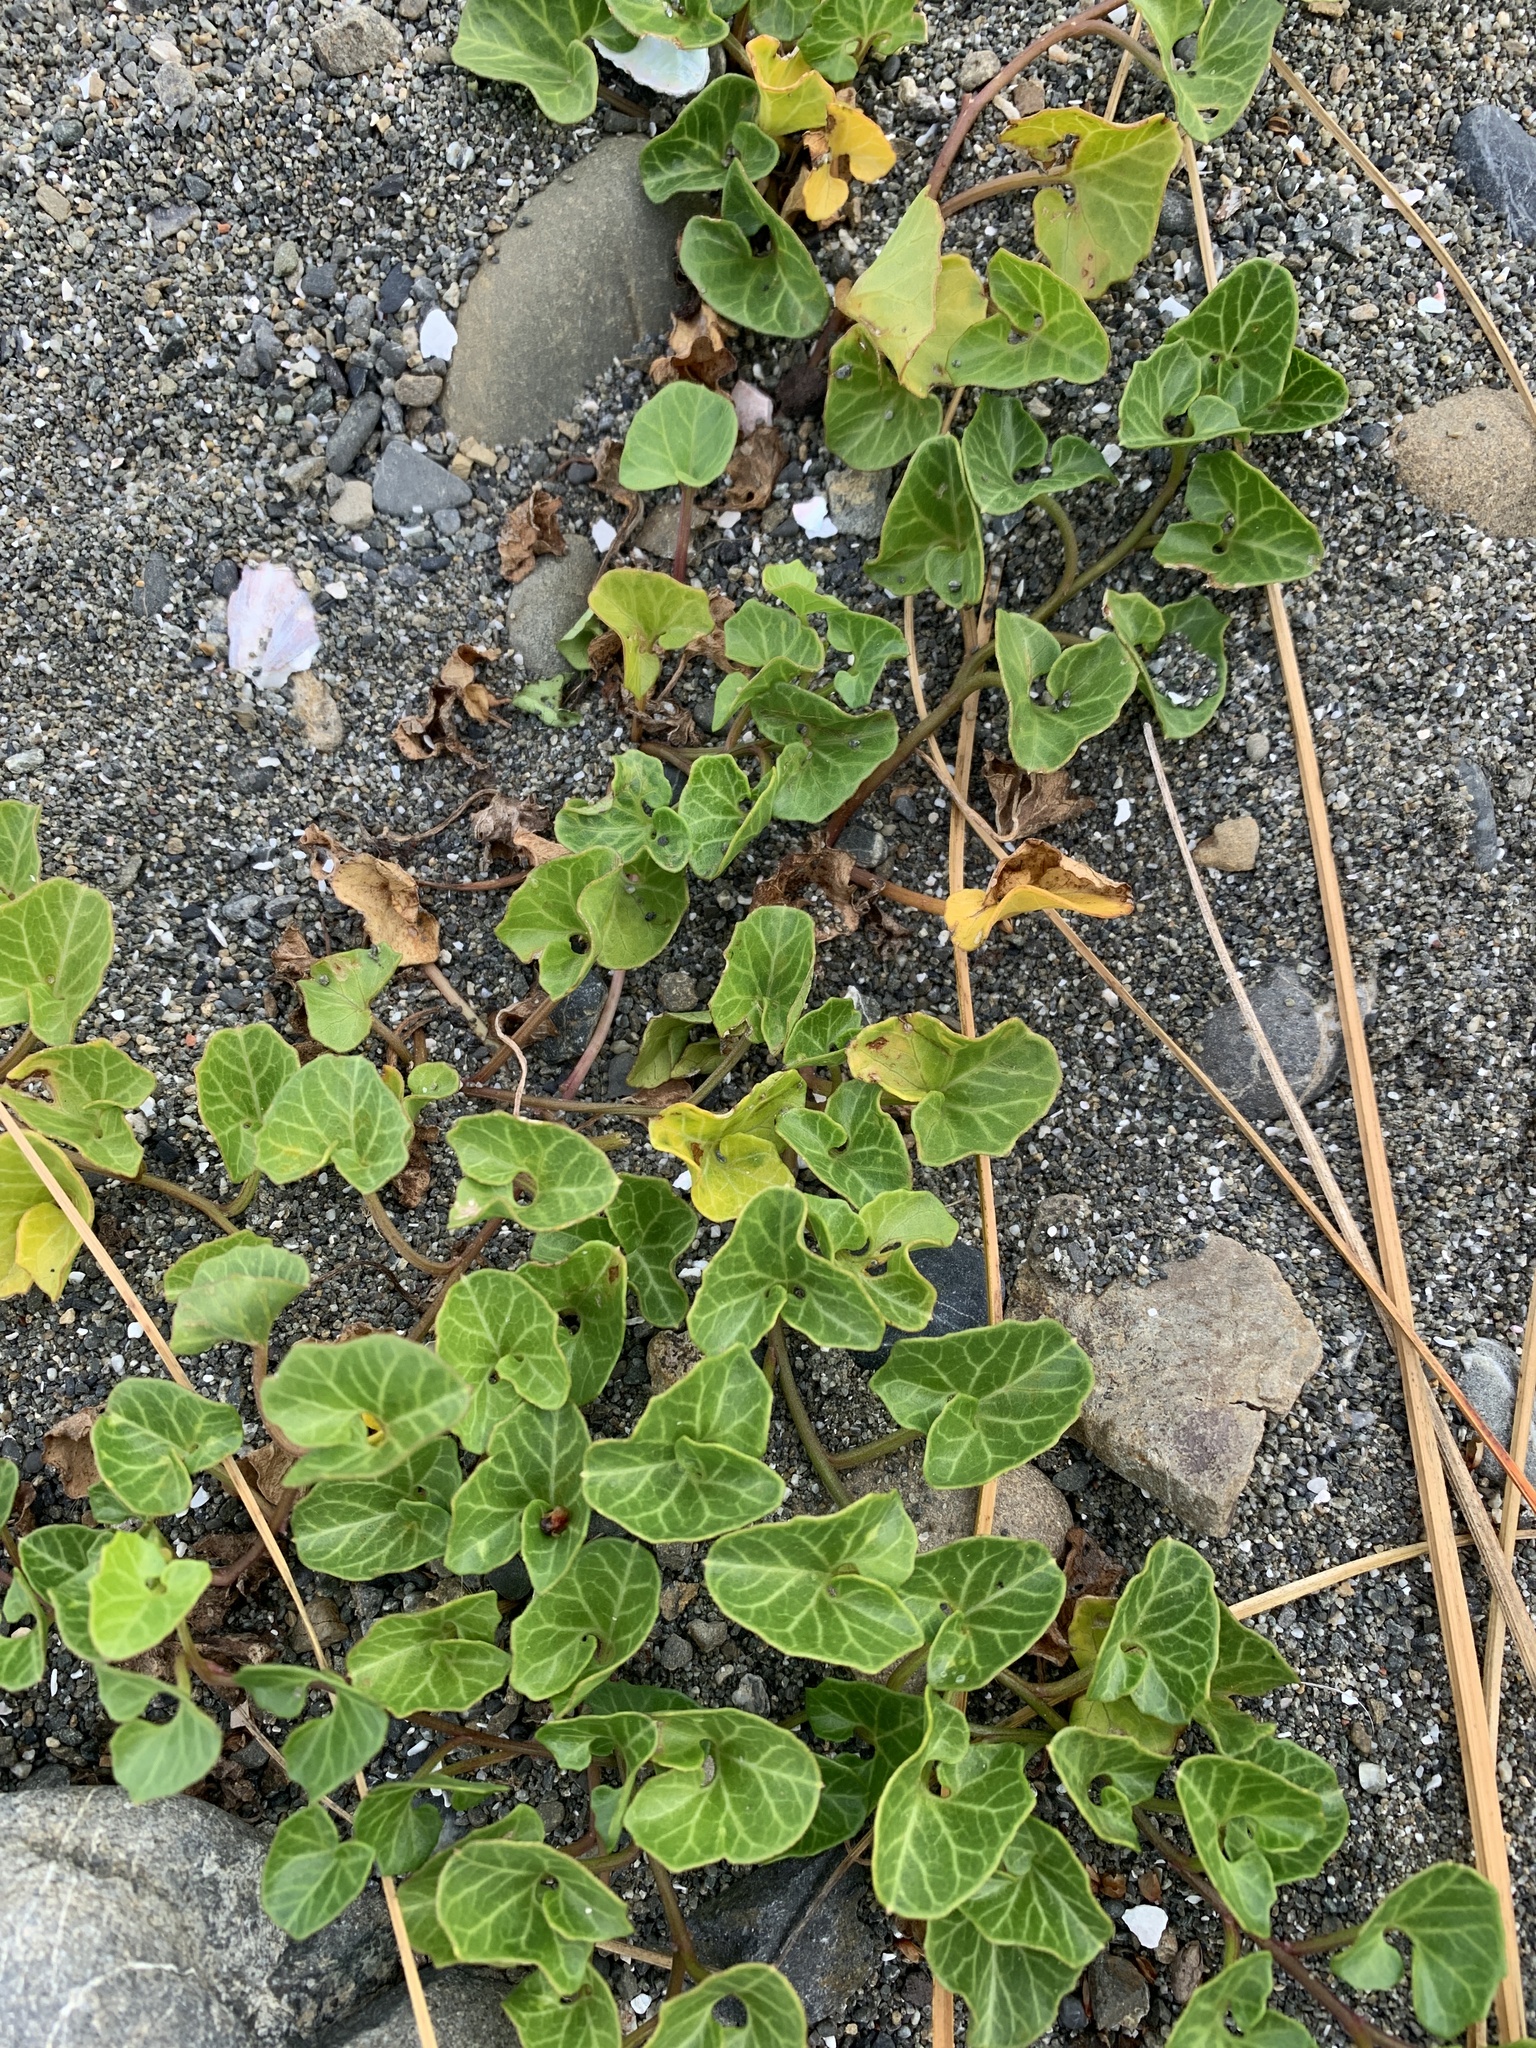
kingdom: Plantae
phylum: Tracheophyta
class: Magnoliopsida
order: Solanales
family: Convolvulaceae
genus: Calystegia
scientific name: Calystegia soldanella
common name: Sea bindweed
